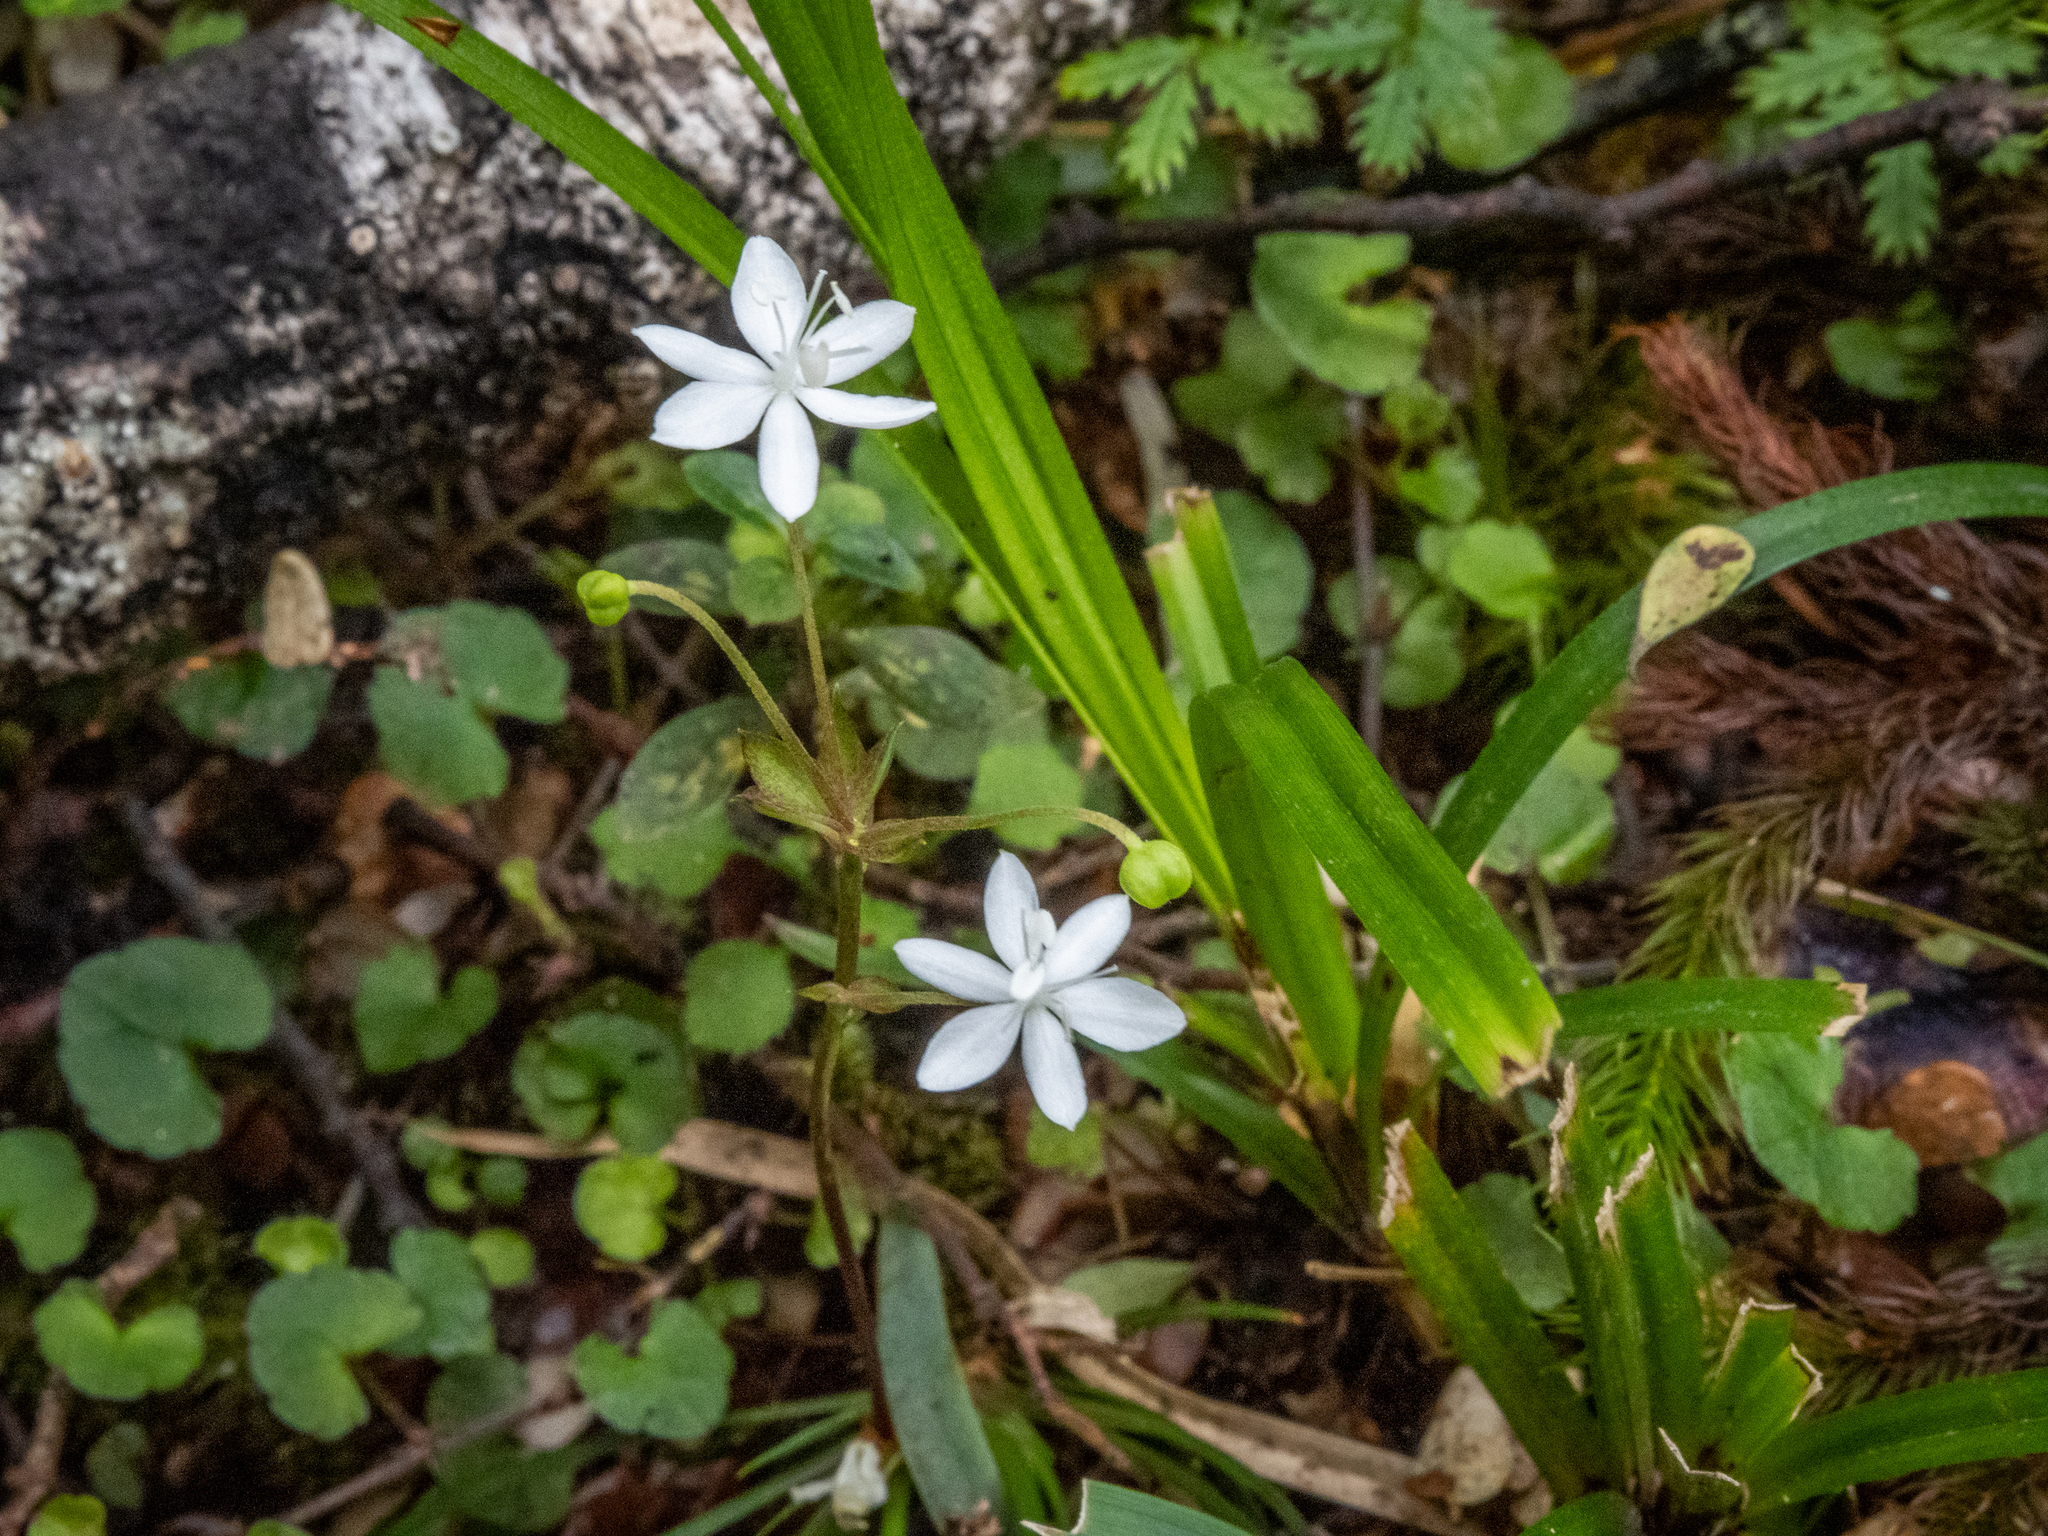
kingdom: Plantae
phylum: Tracheophyta
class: Liliopsida
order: Asparagales
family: Iridaceae
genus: Libertia
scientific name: Libertia micrantha
